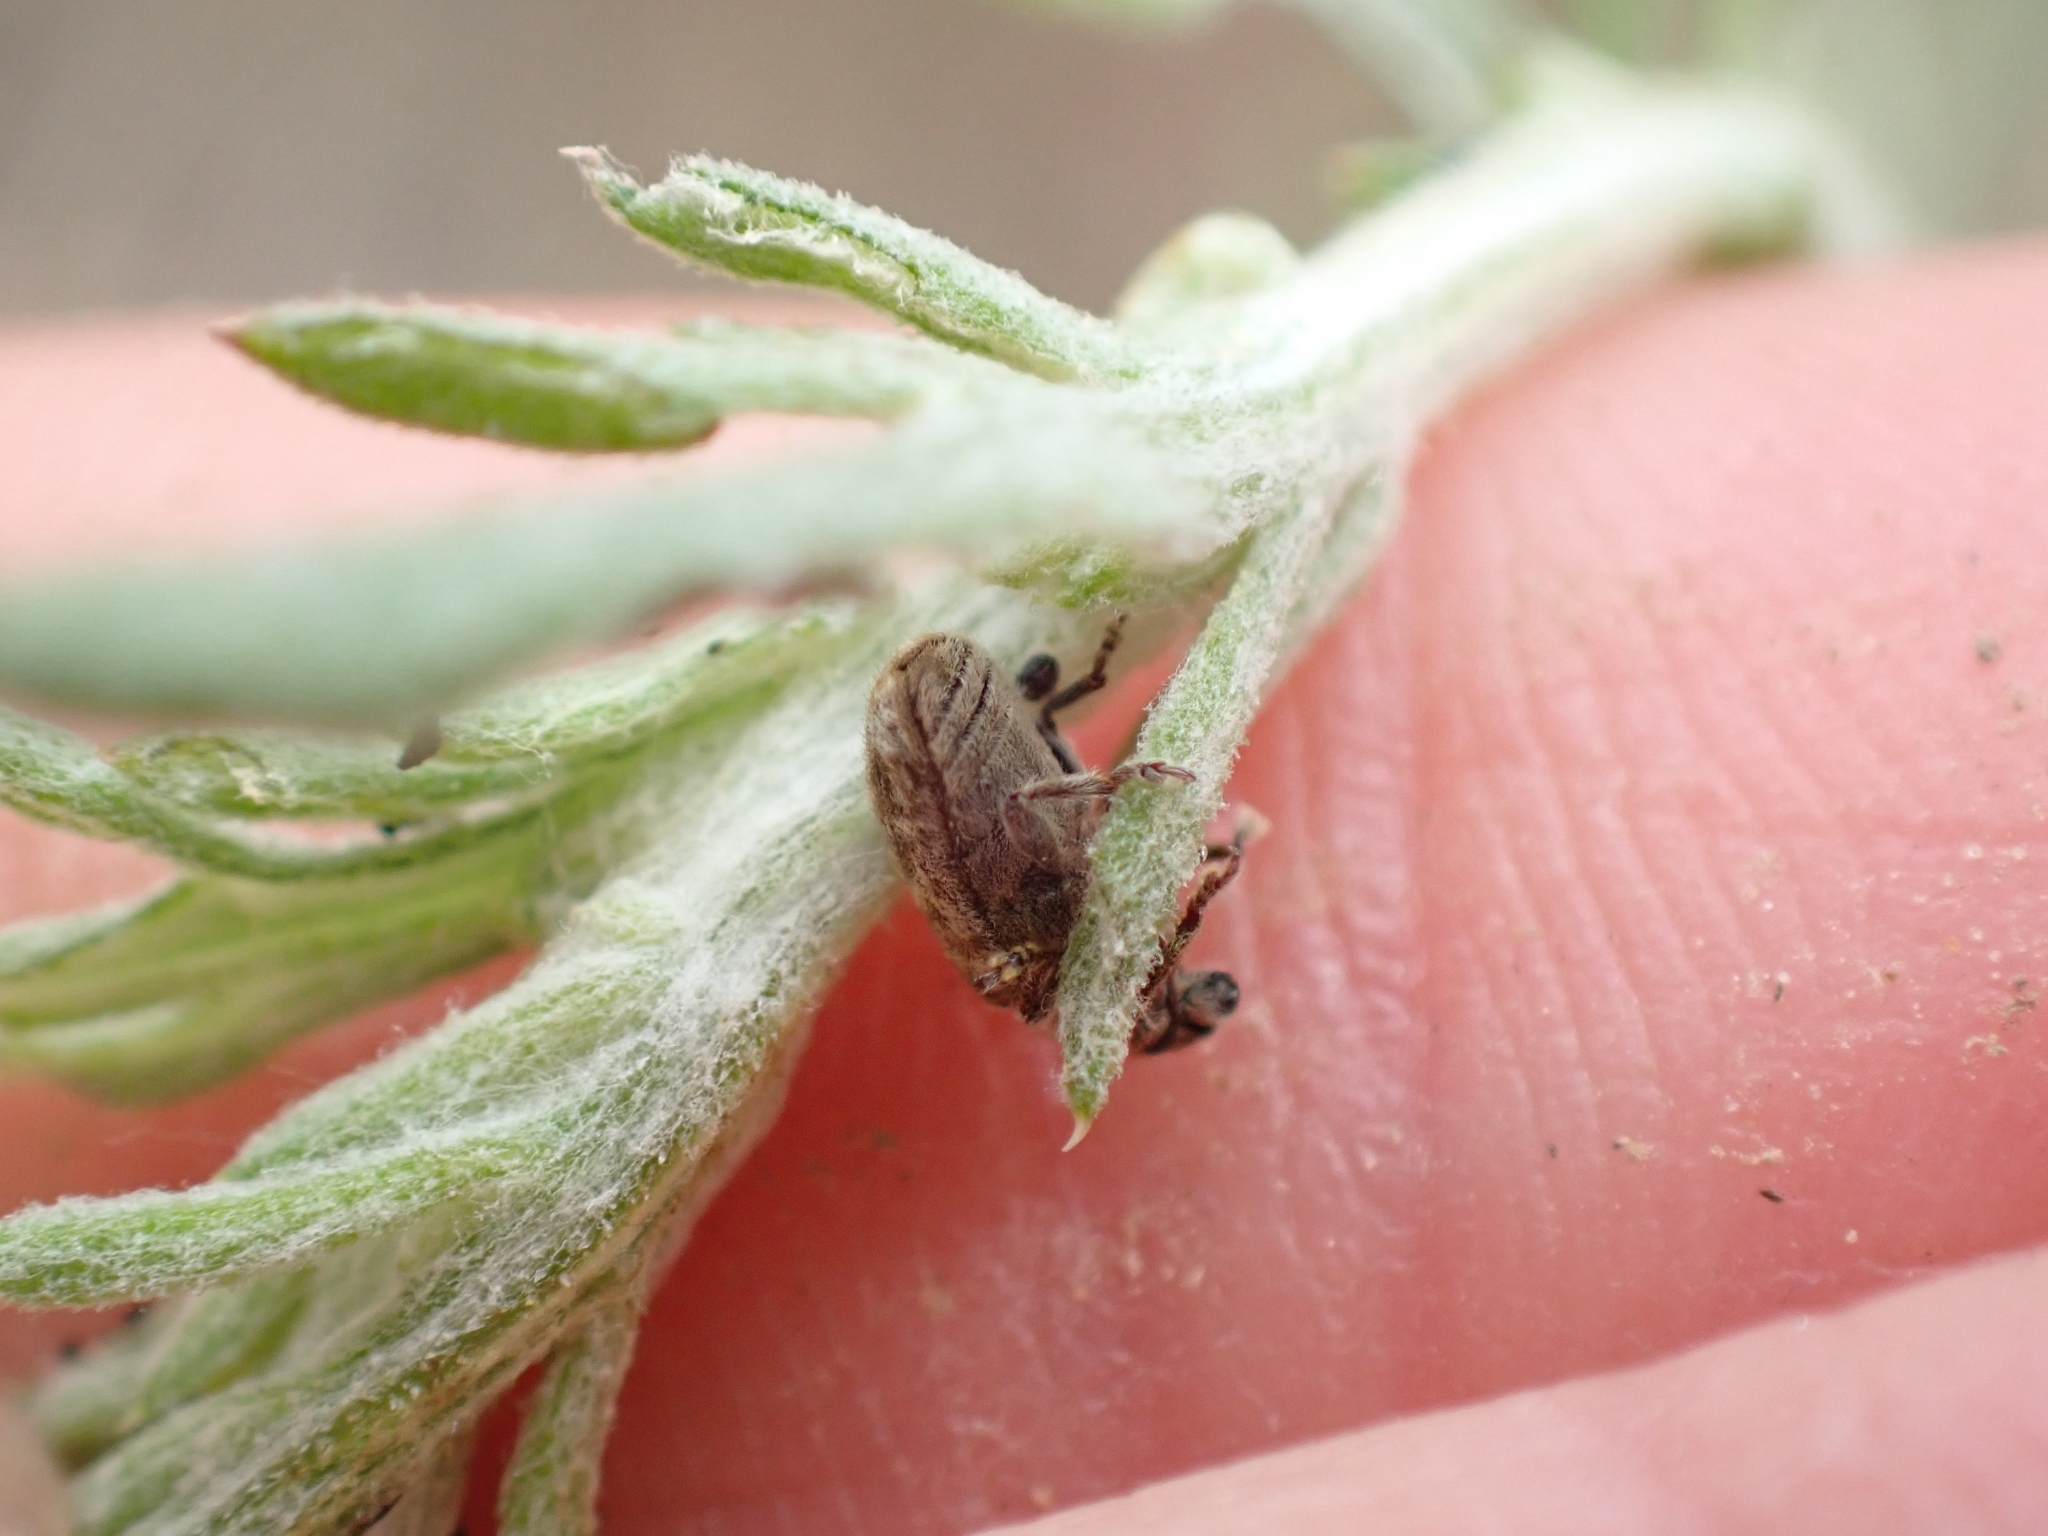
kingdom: Animalia
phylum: Arthropoda
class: Insecta
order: Coleoptera
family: Curculionidae
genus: Bangasternus
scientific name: Bangasternus fausti
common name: Broad-nosed knapweed seedhead weevil
